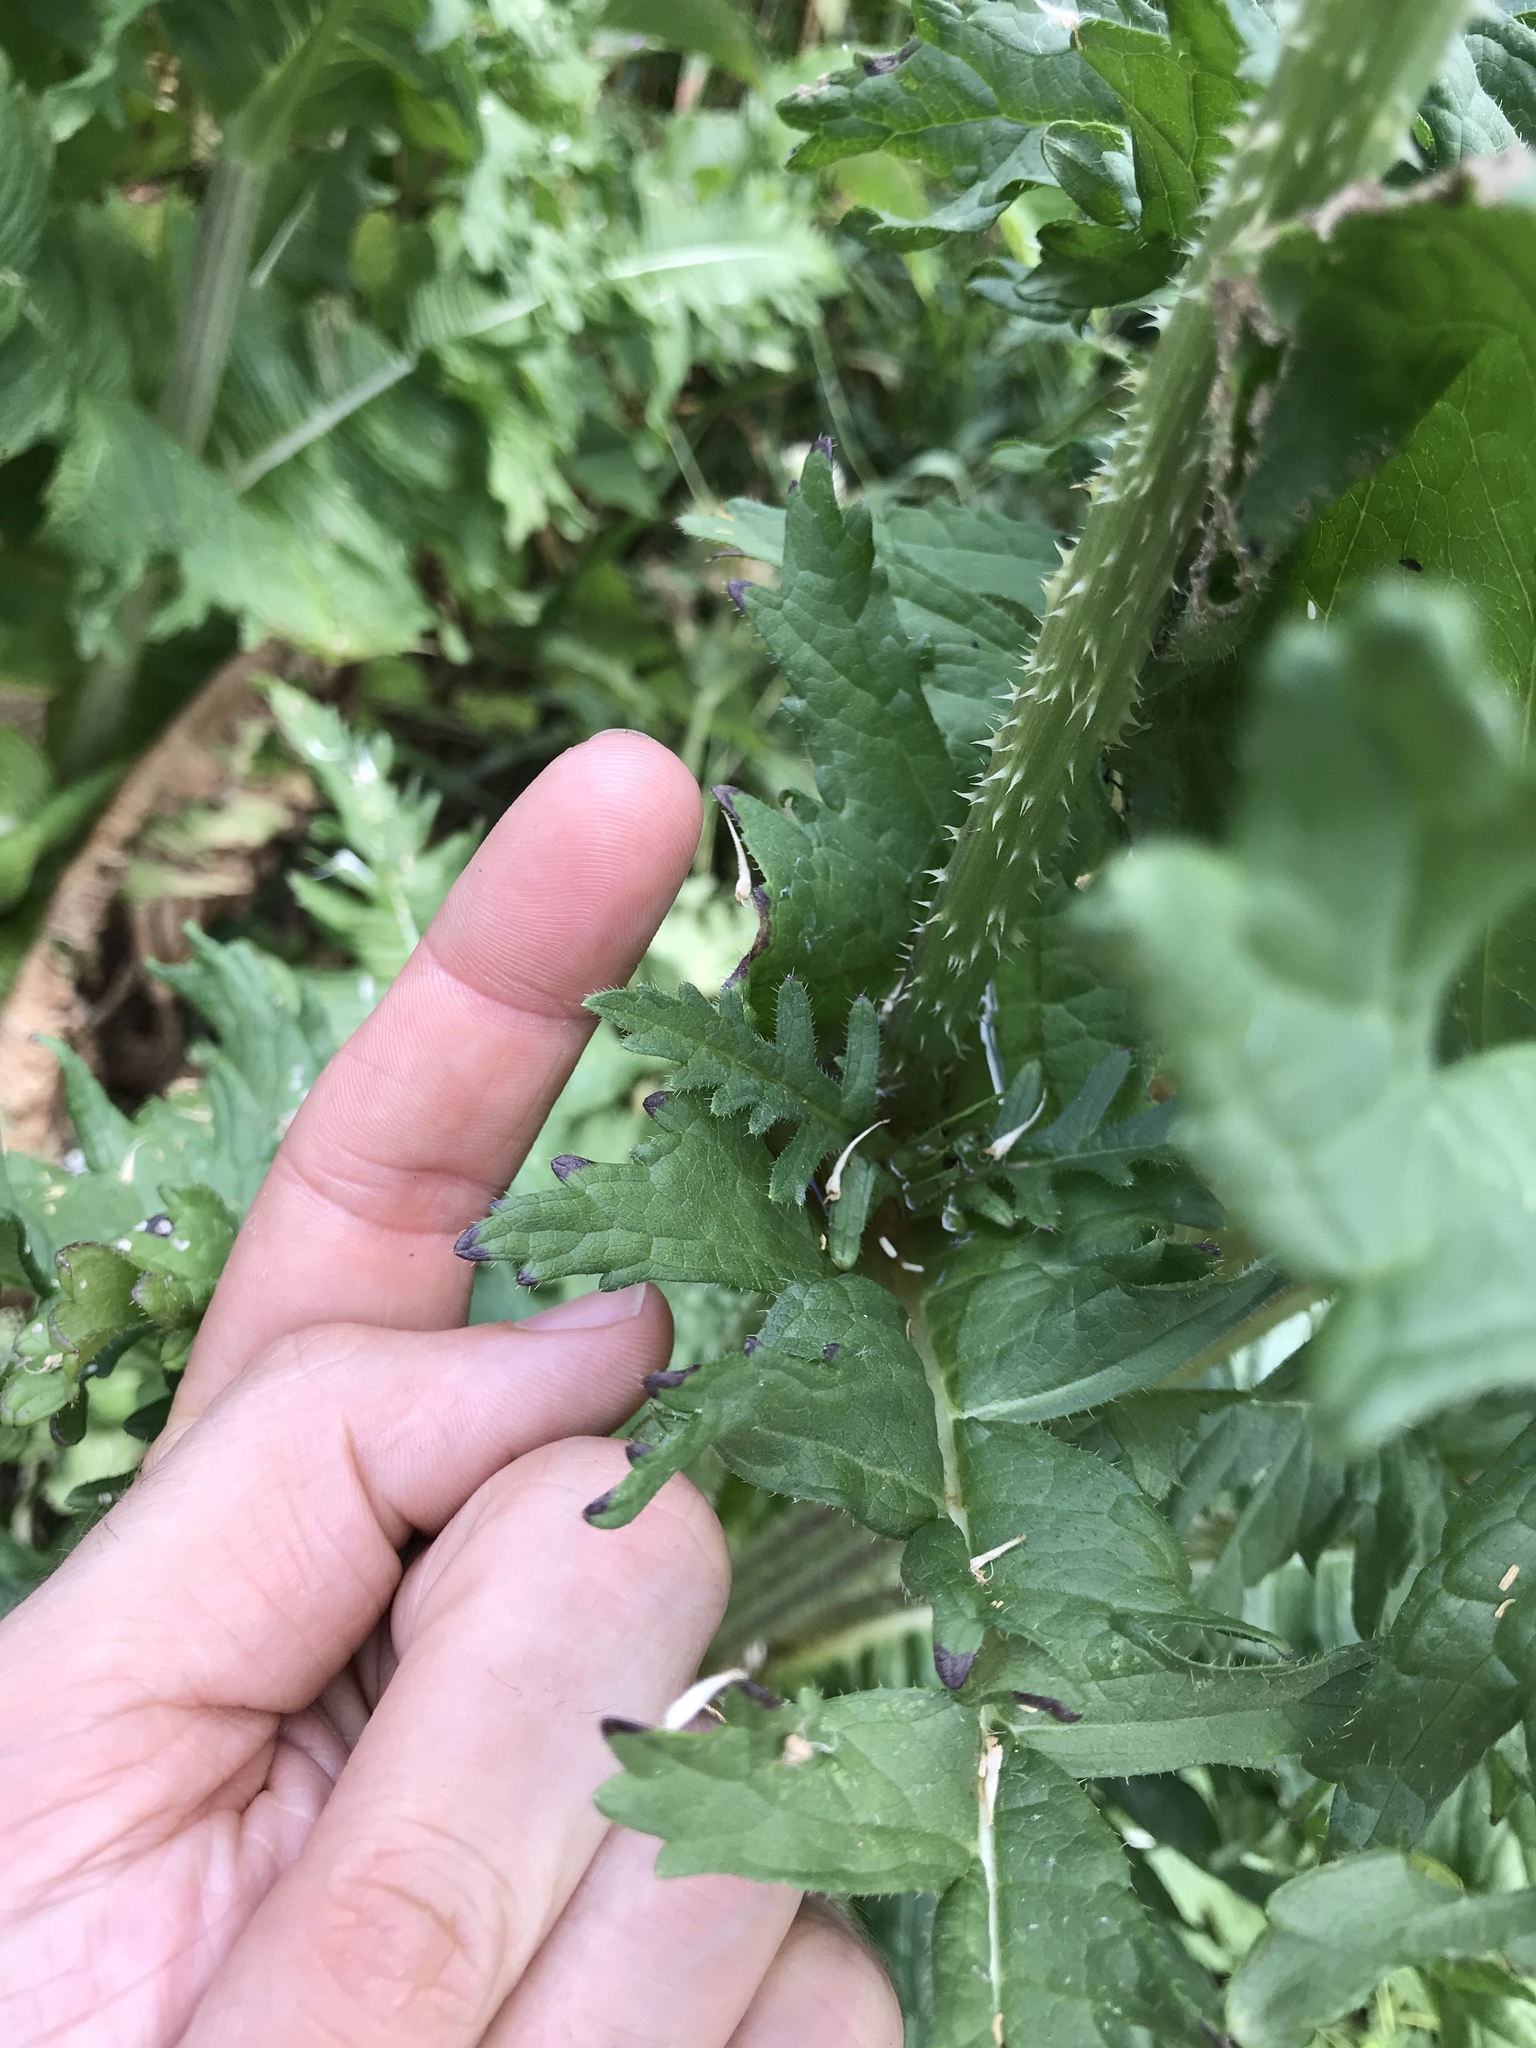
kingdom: Plantae
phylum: Tracheophyta
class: Magnoliopsida
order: Dipsacales
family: Caprifoliaceae
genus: Dipsacus
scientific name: Dipsacus laciniatus
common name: Cut-leaved teasel
